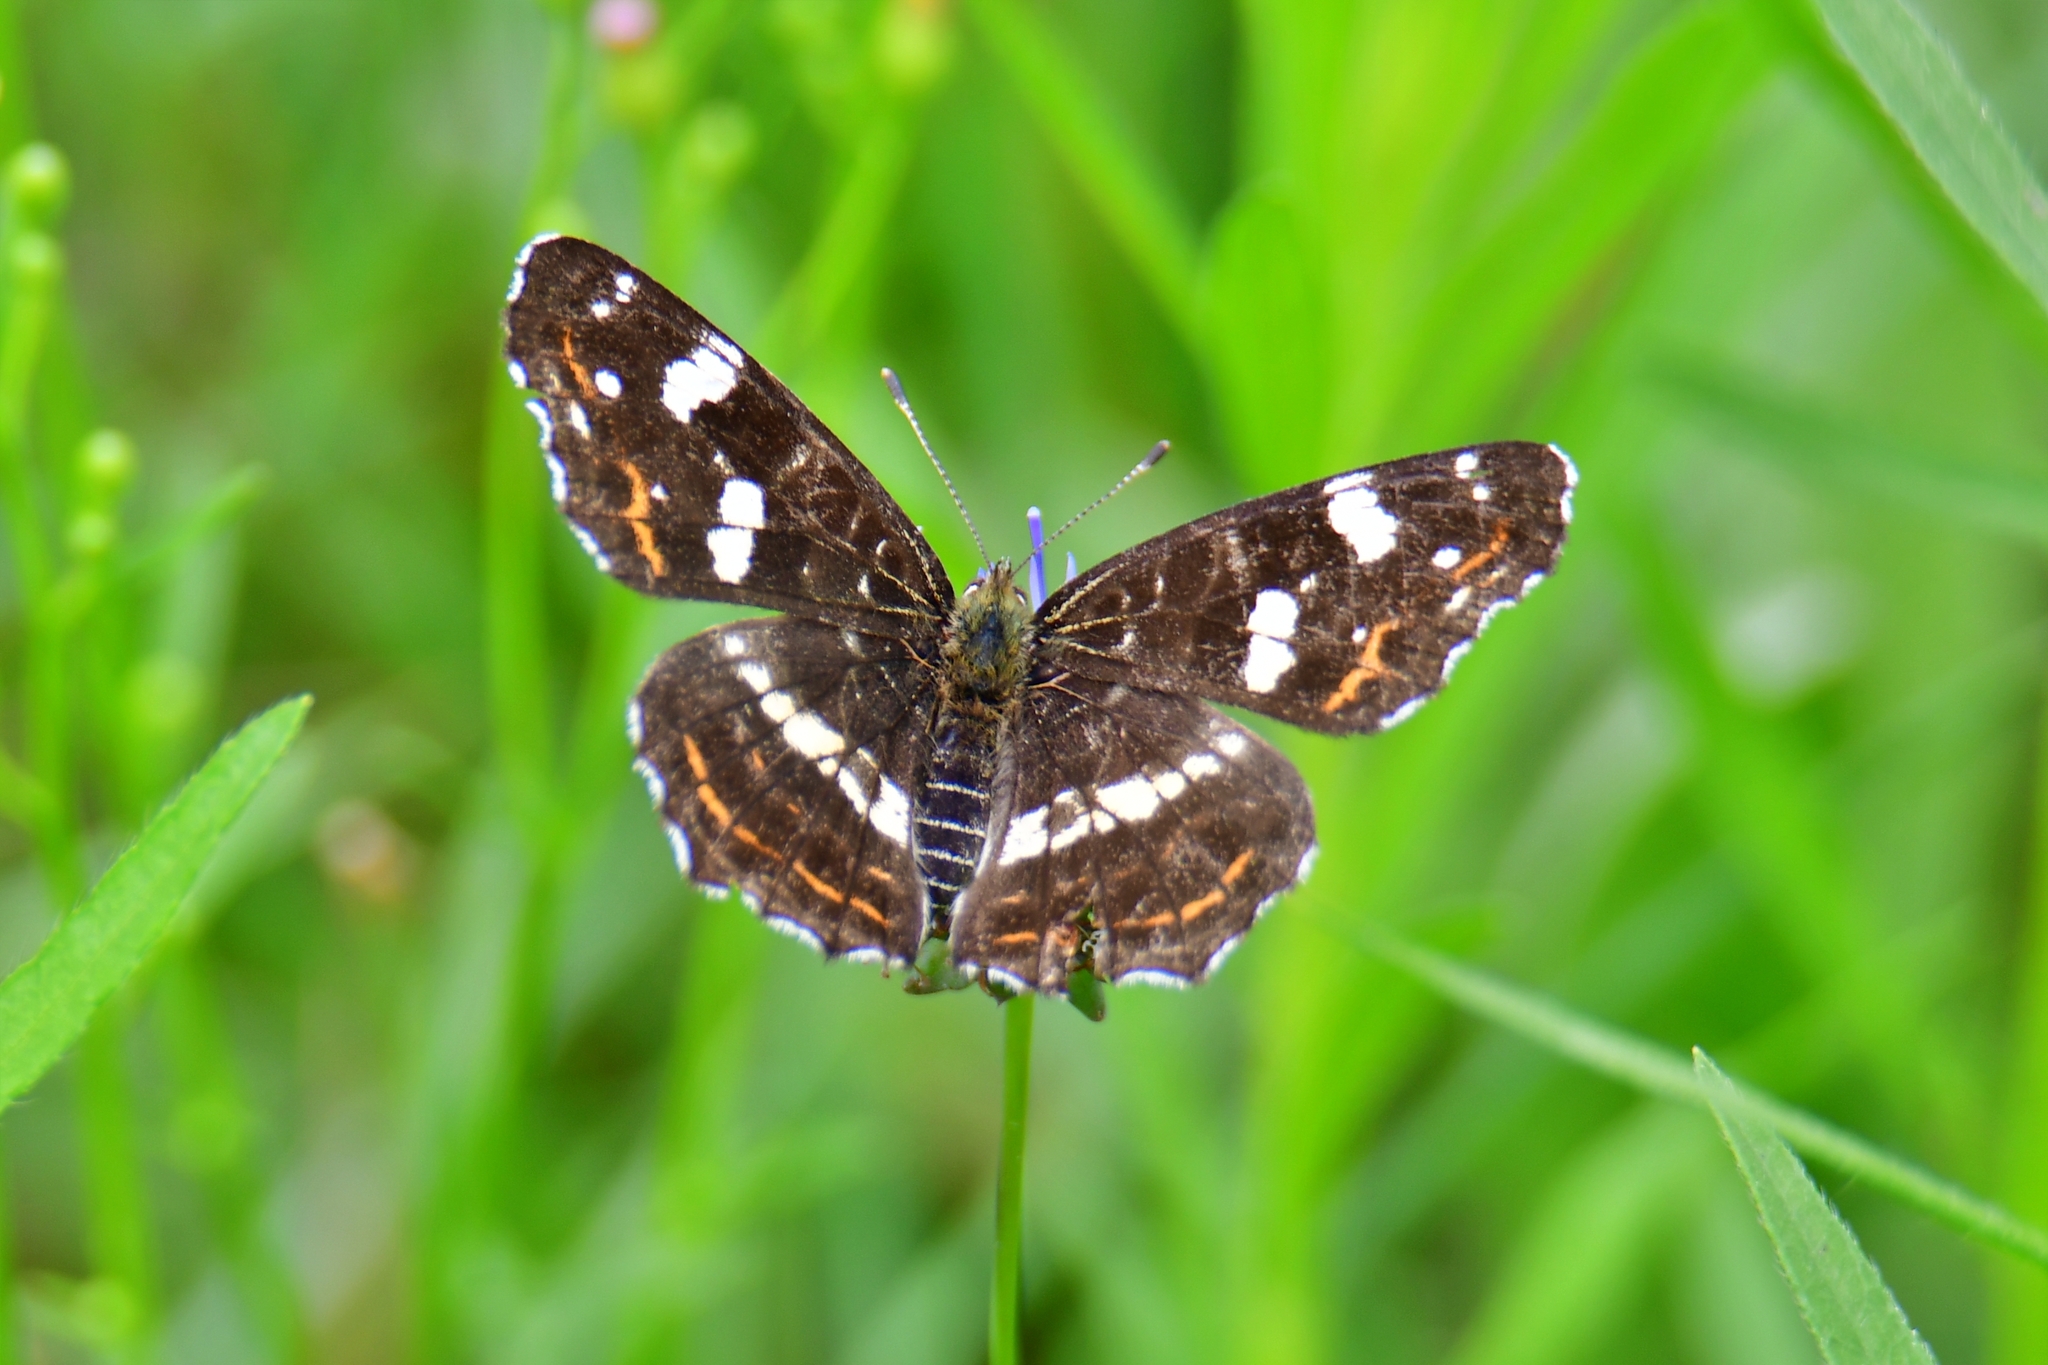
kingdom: Animalia
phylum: Arthropoda
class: Insecta
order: Lepidoptera
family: Nymphalidae
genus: Araschnia
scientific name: Araschnia levana
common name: Map butterfly
